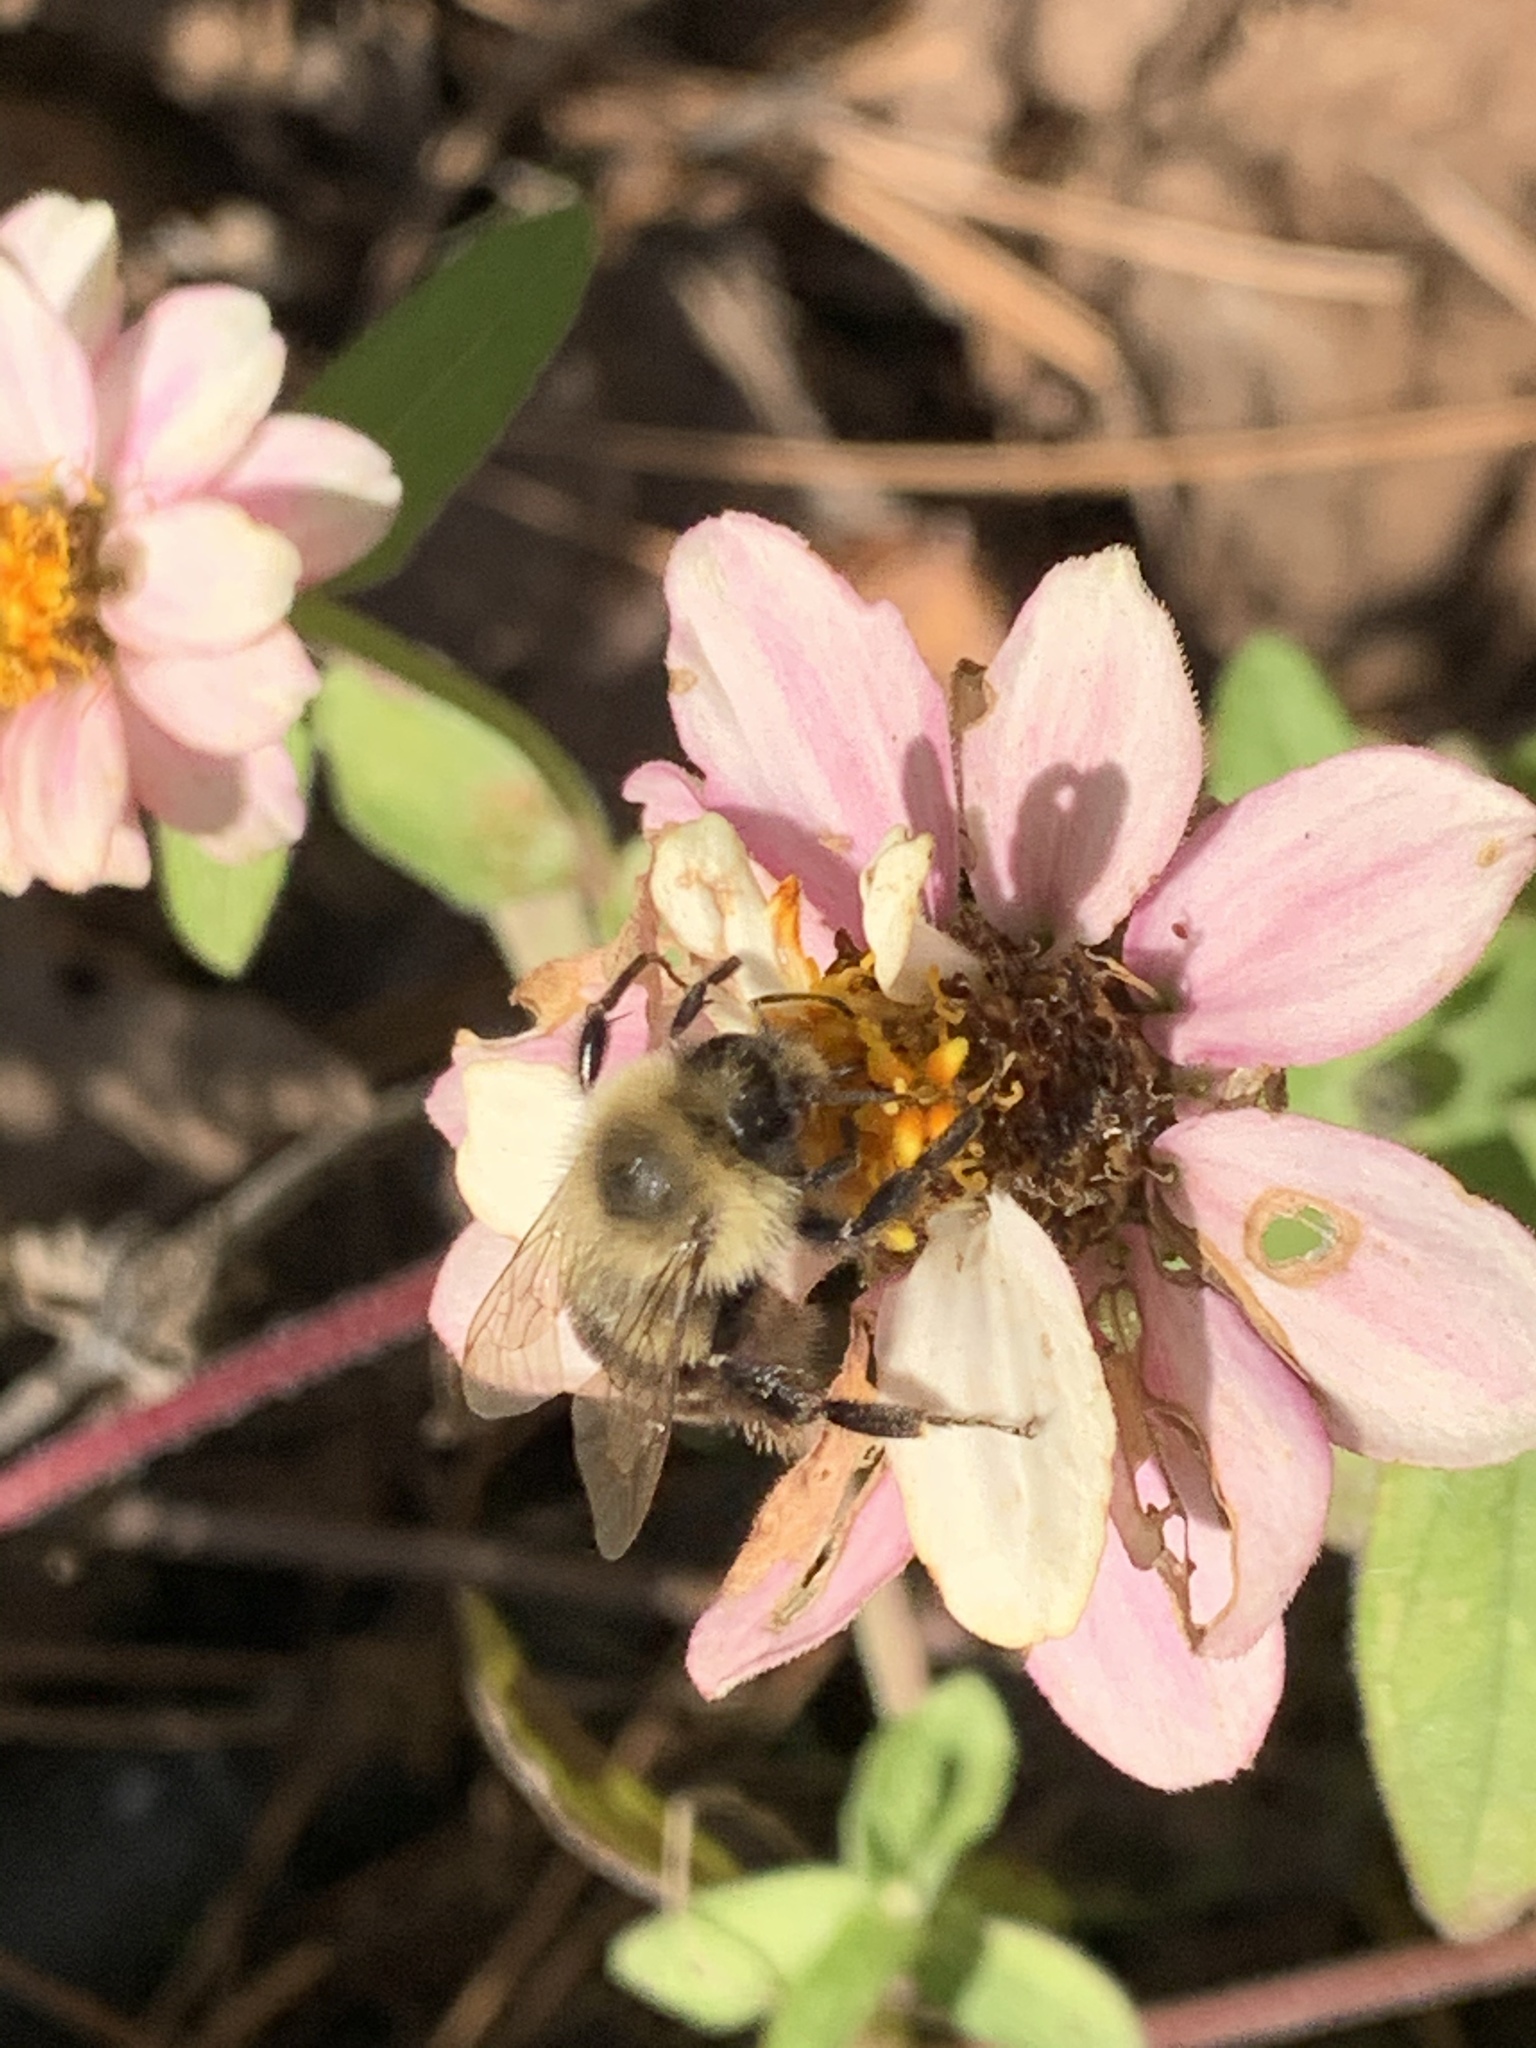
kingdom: Animalia
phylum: Arthropoda
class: Insecta
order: Hymenoptera
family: Apidae
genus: Bombus
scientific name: Bombus impatiens
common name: Common eastern bumble bee
